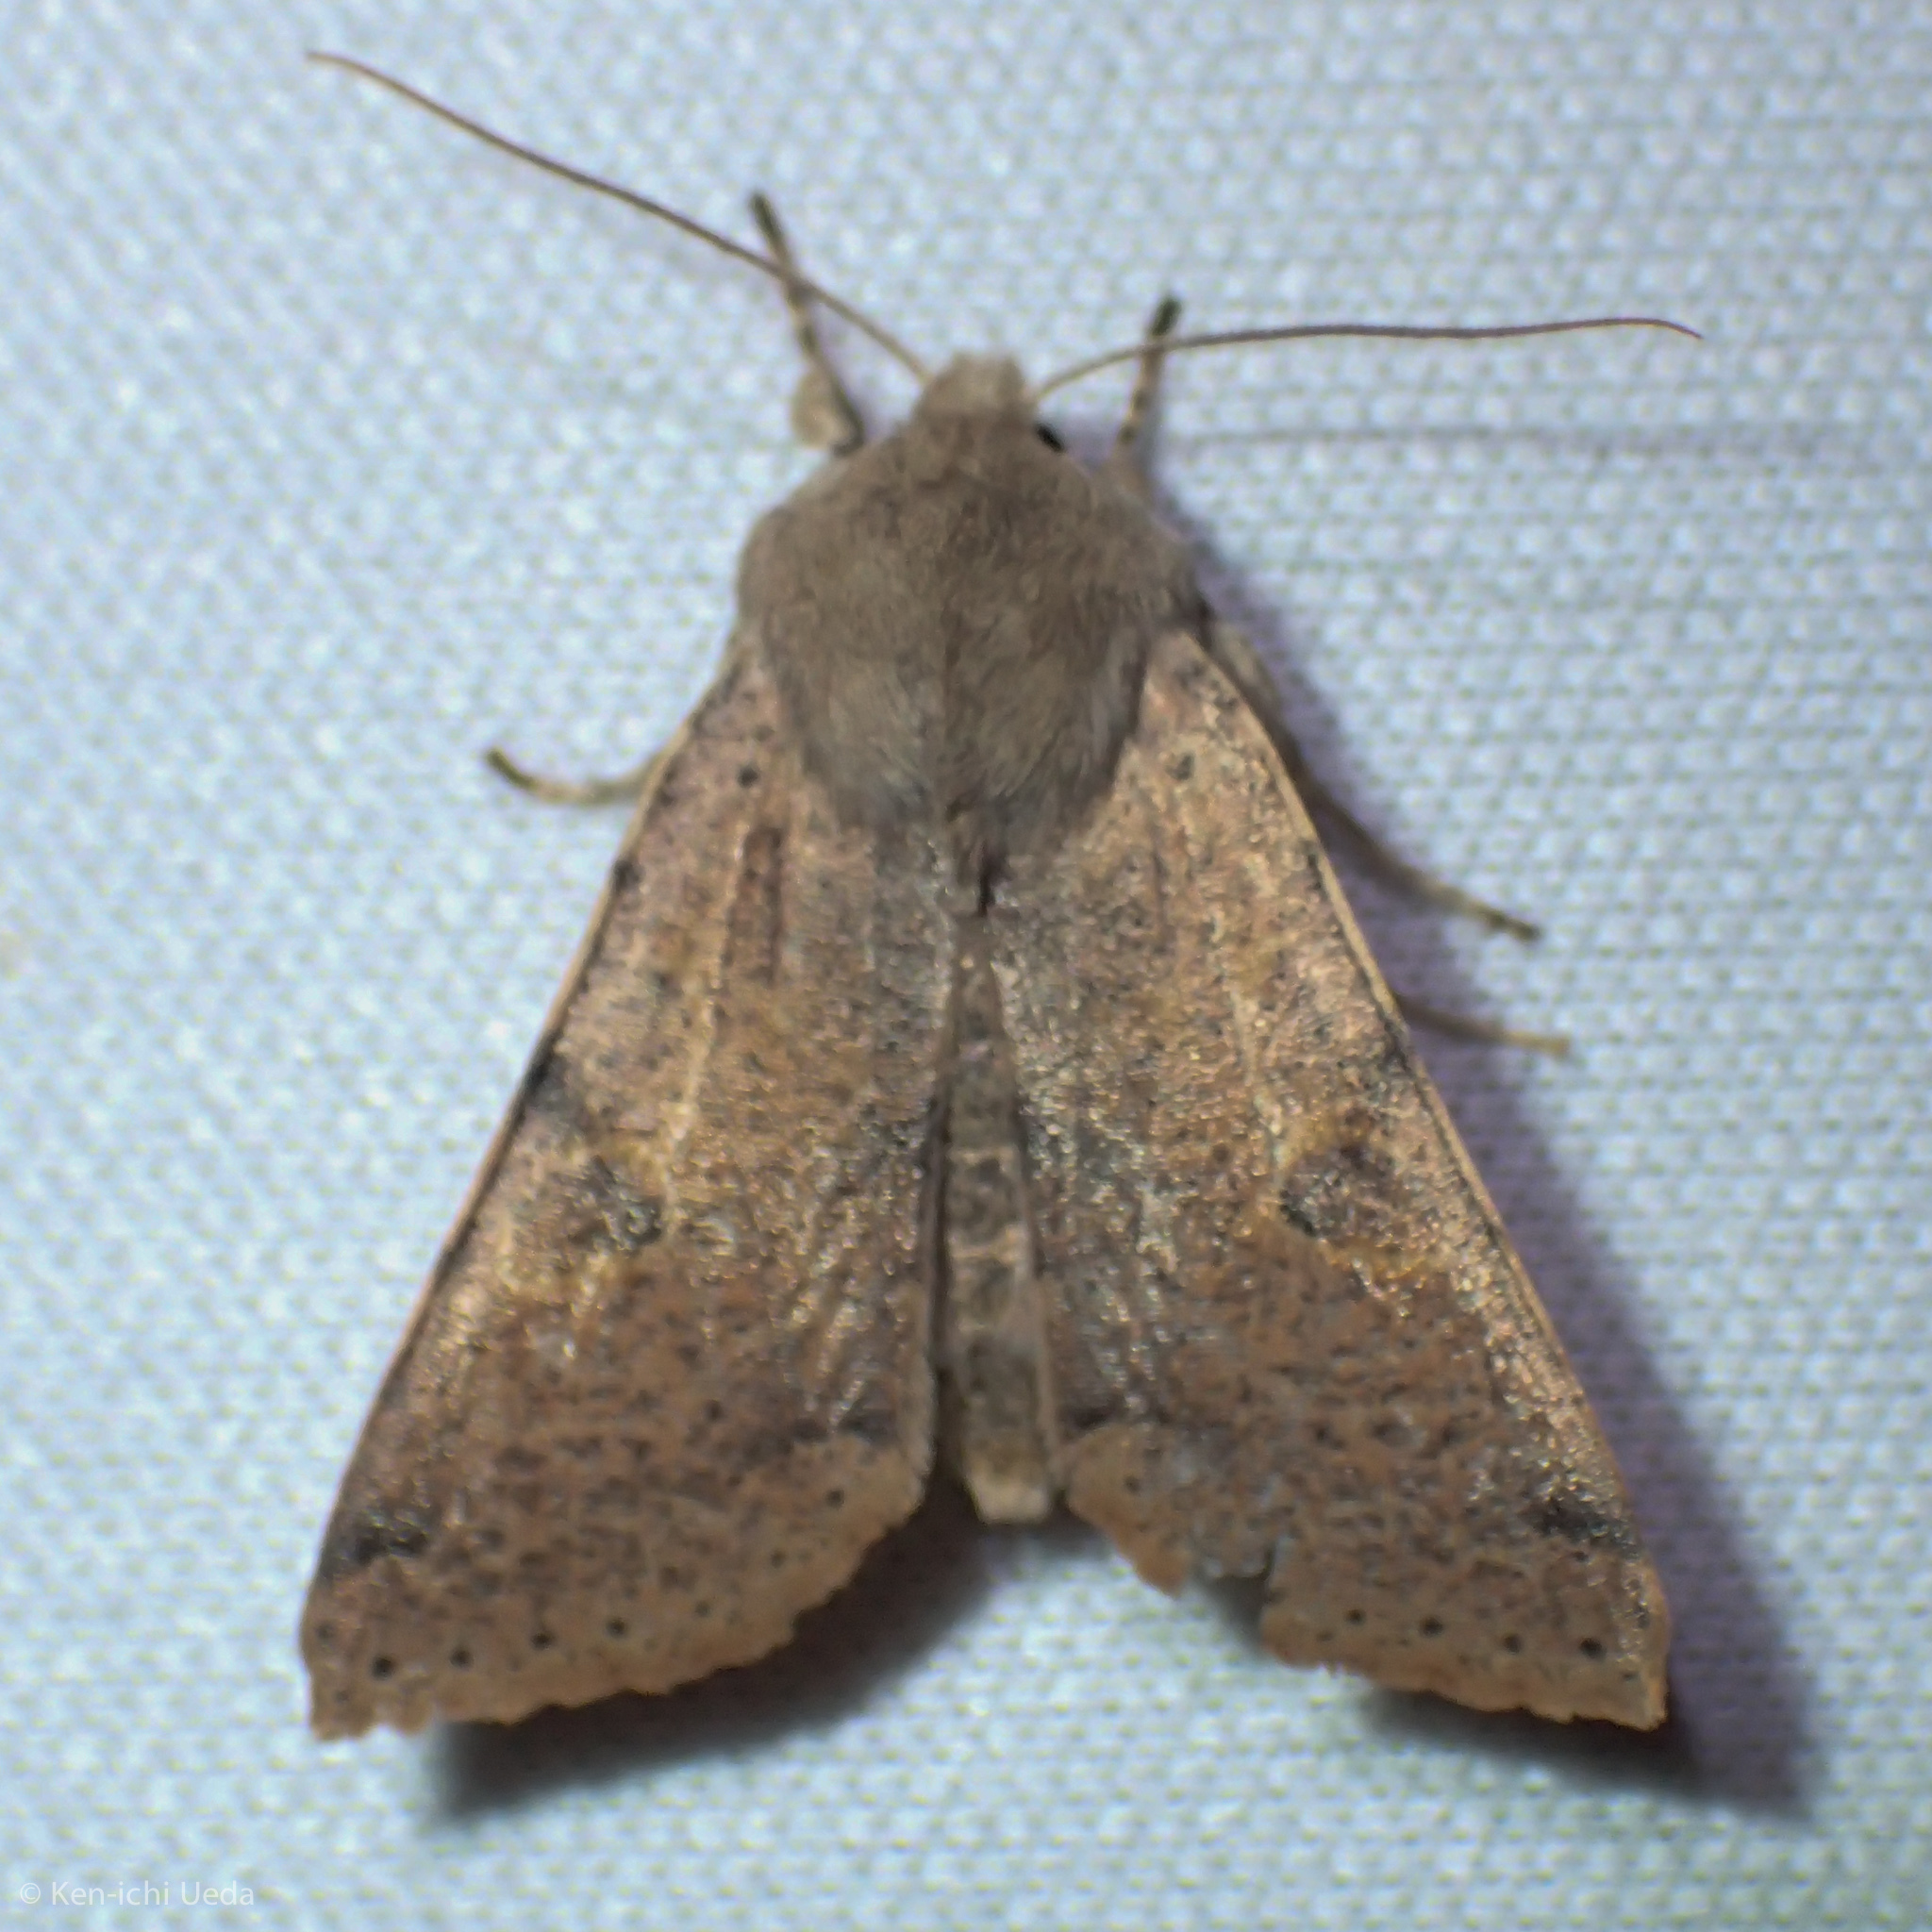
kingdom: Animalia
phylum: Arthropoda
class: Insecta
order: Lepidoptera
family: Noctuidae
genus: Orthosia
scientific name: Orthosia behrensiana
